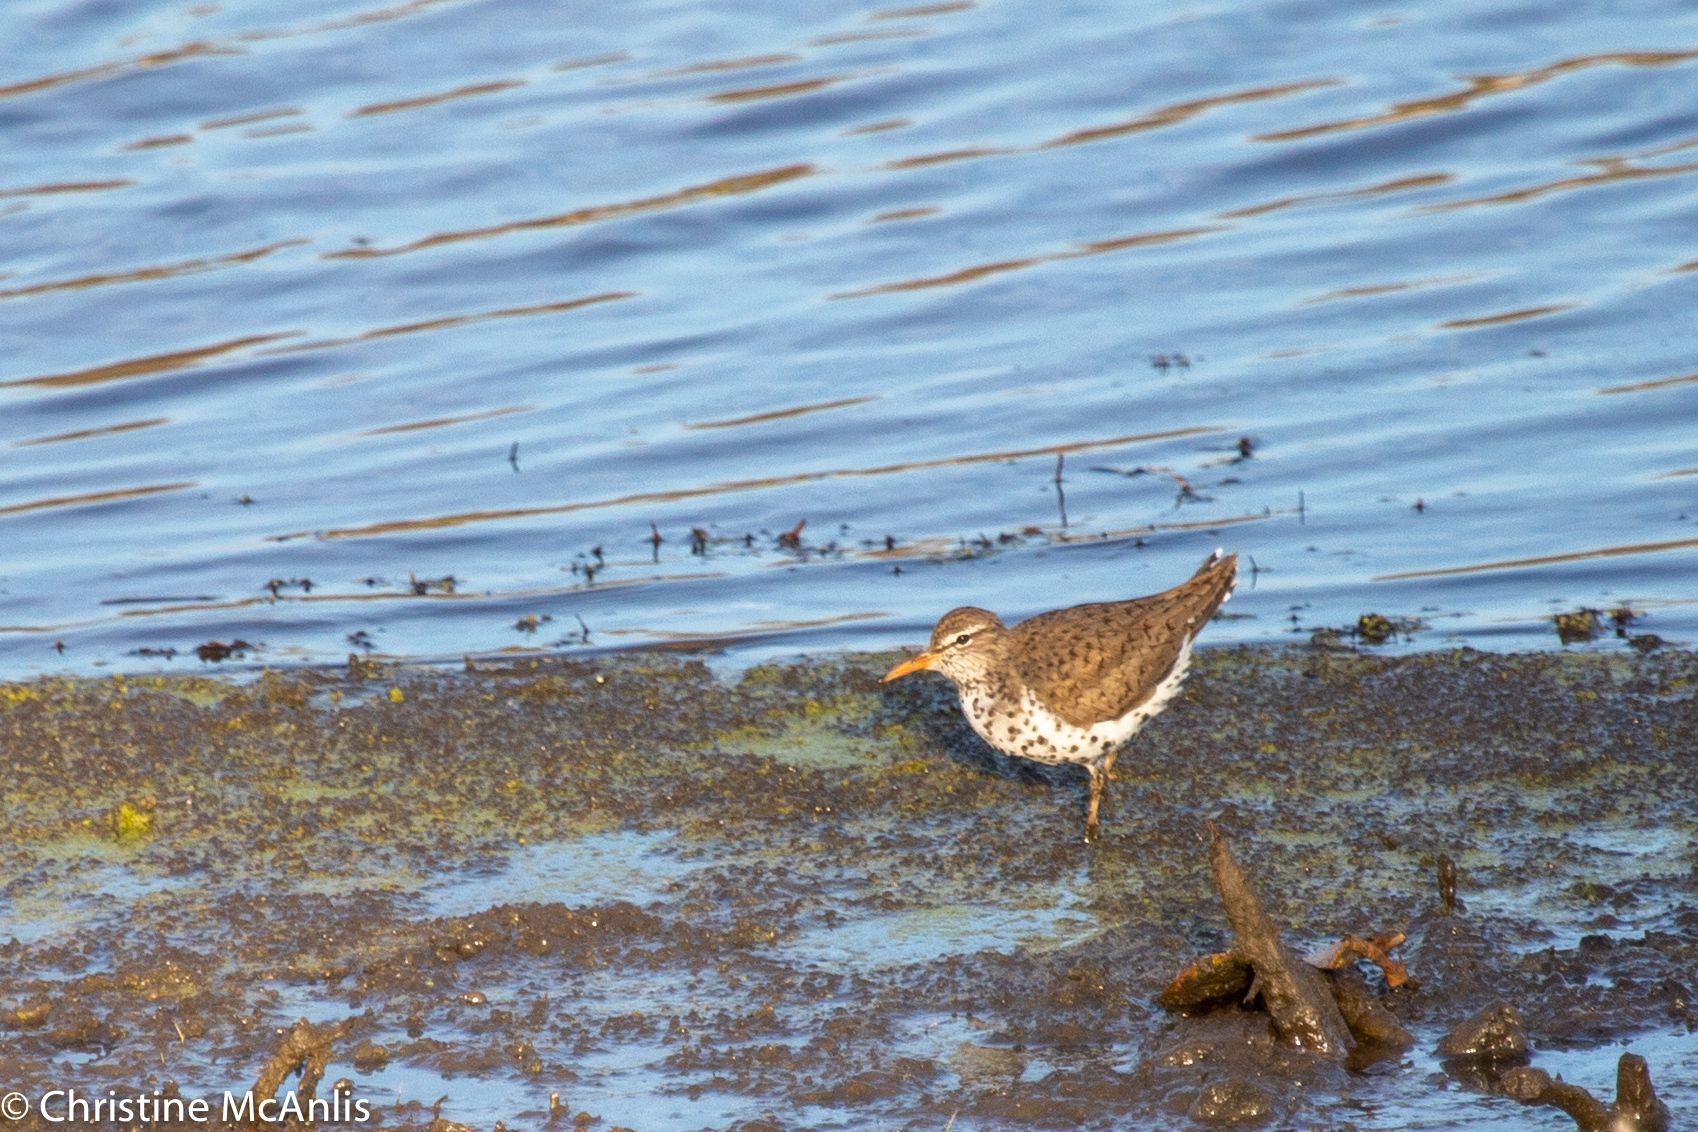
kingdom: Animalia
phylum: Chordata
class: Aves
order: Charadriiformes
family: Scolopacidae
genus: Actitis
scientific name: Actitis macularius
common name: Spotted sandpiper
